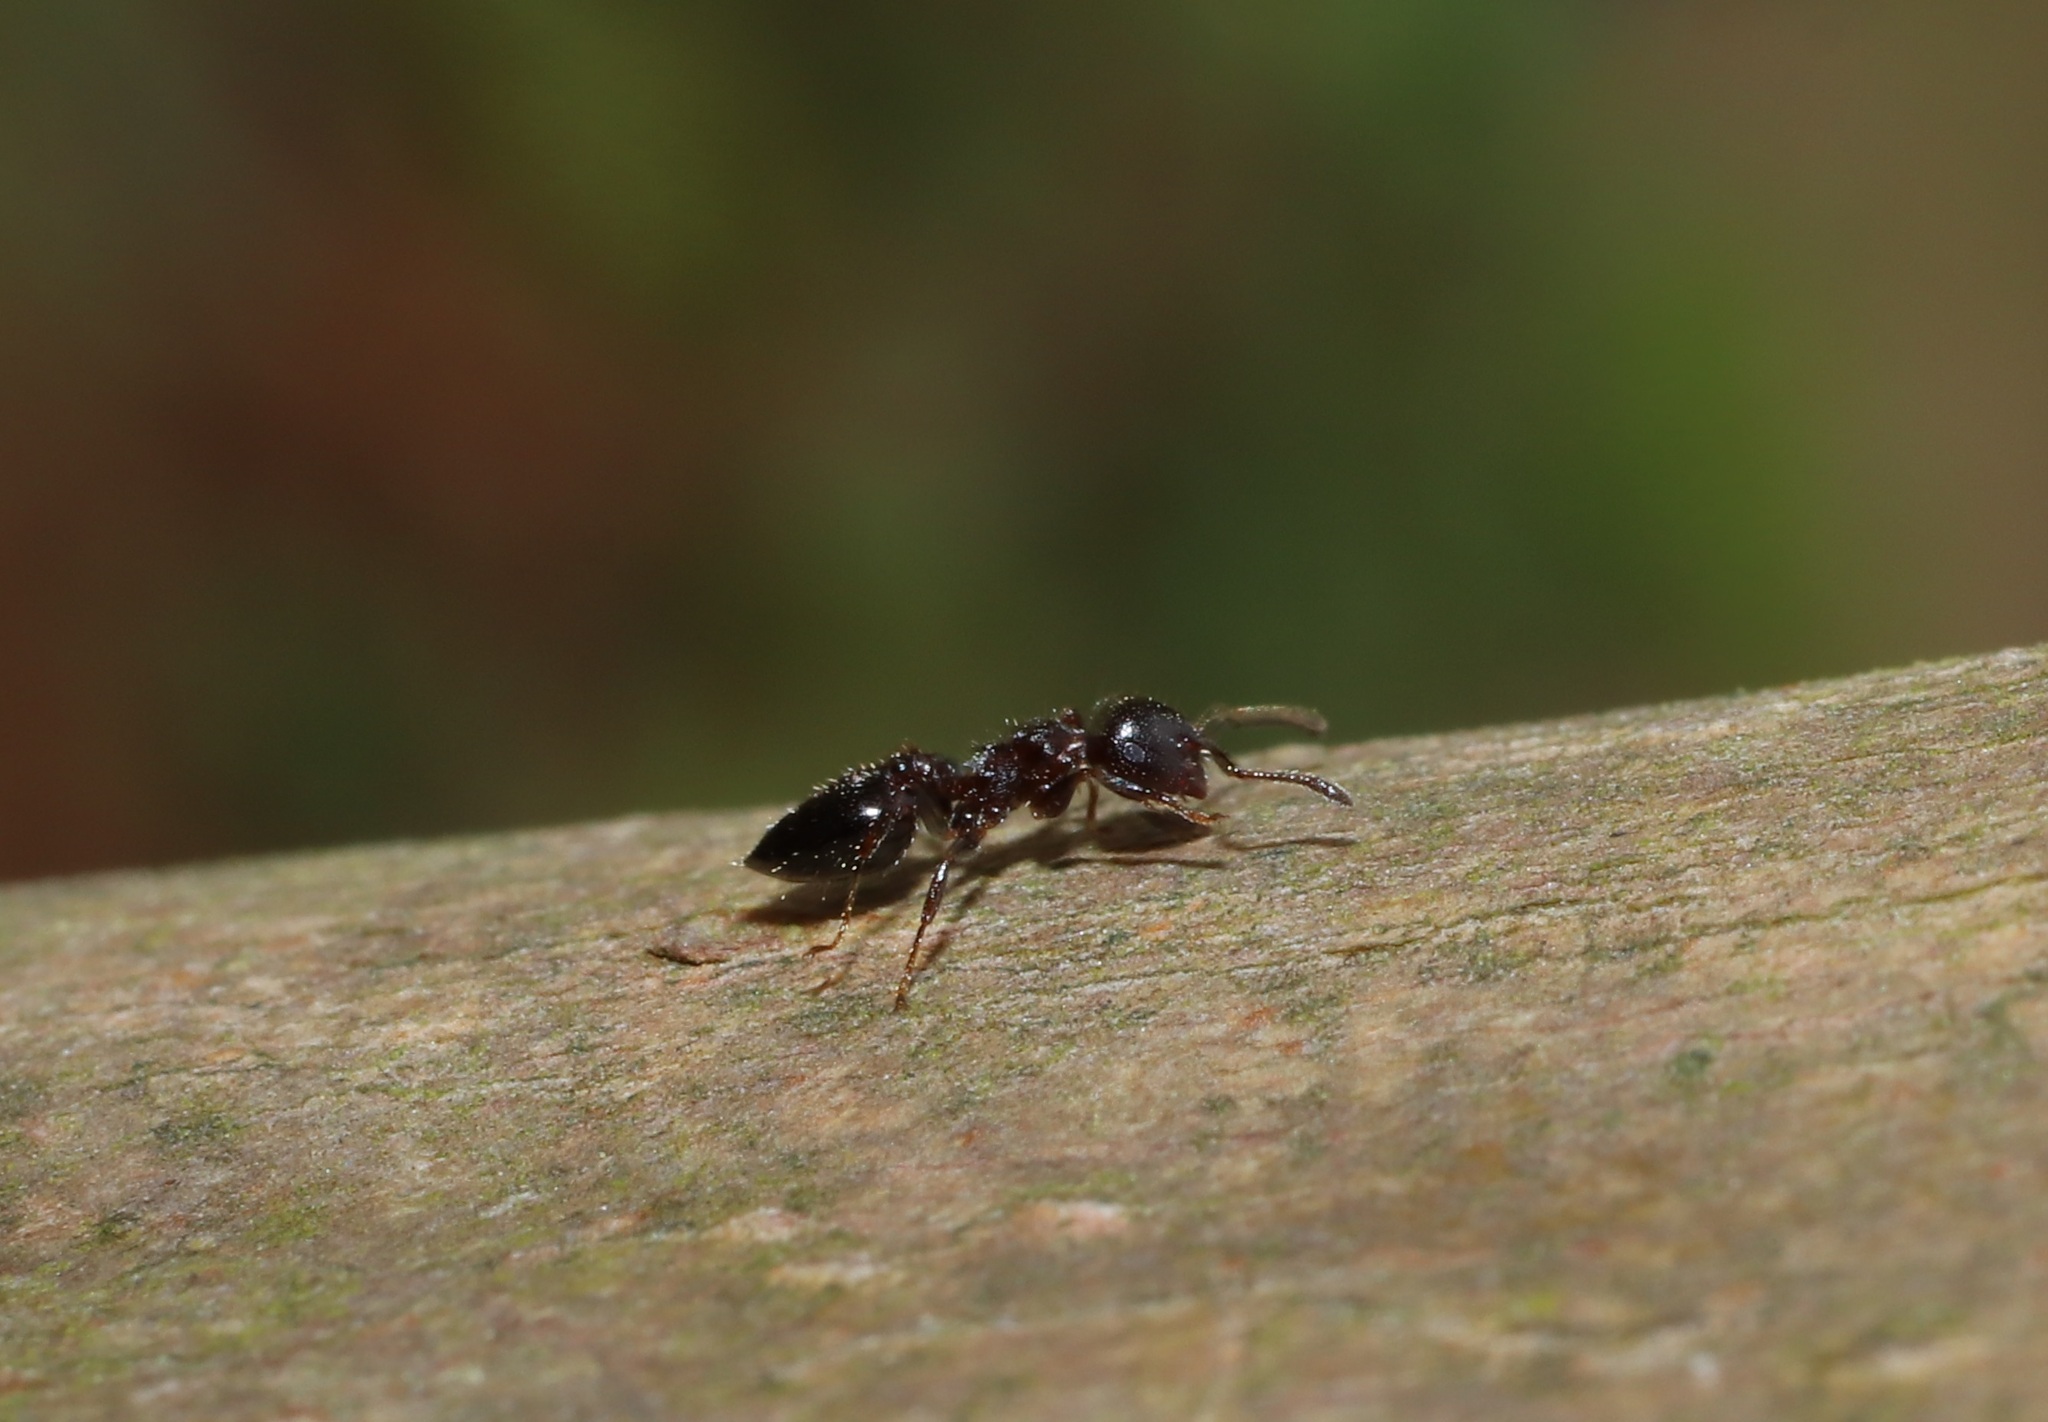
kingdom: Animalia
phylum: Arthropoda
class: Insecta
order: Hymenoptera
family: Formicidae
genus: Crematogaster
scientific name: Crematogaster matsumurai
